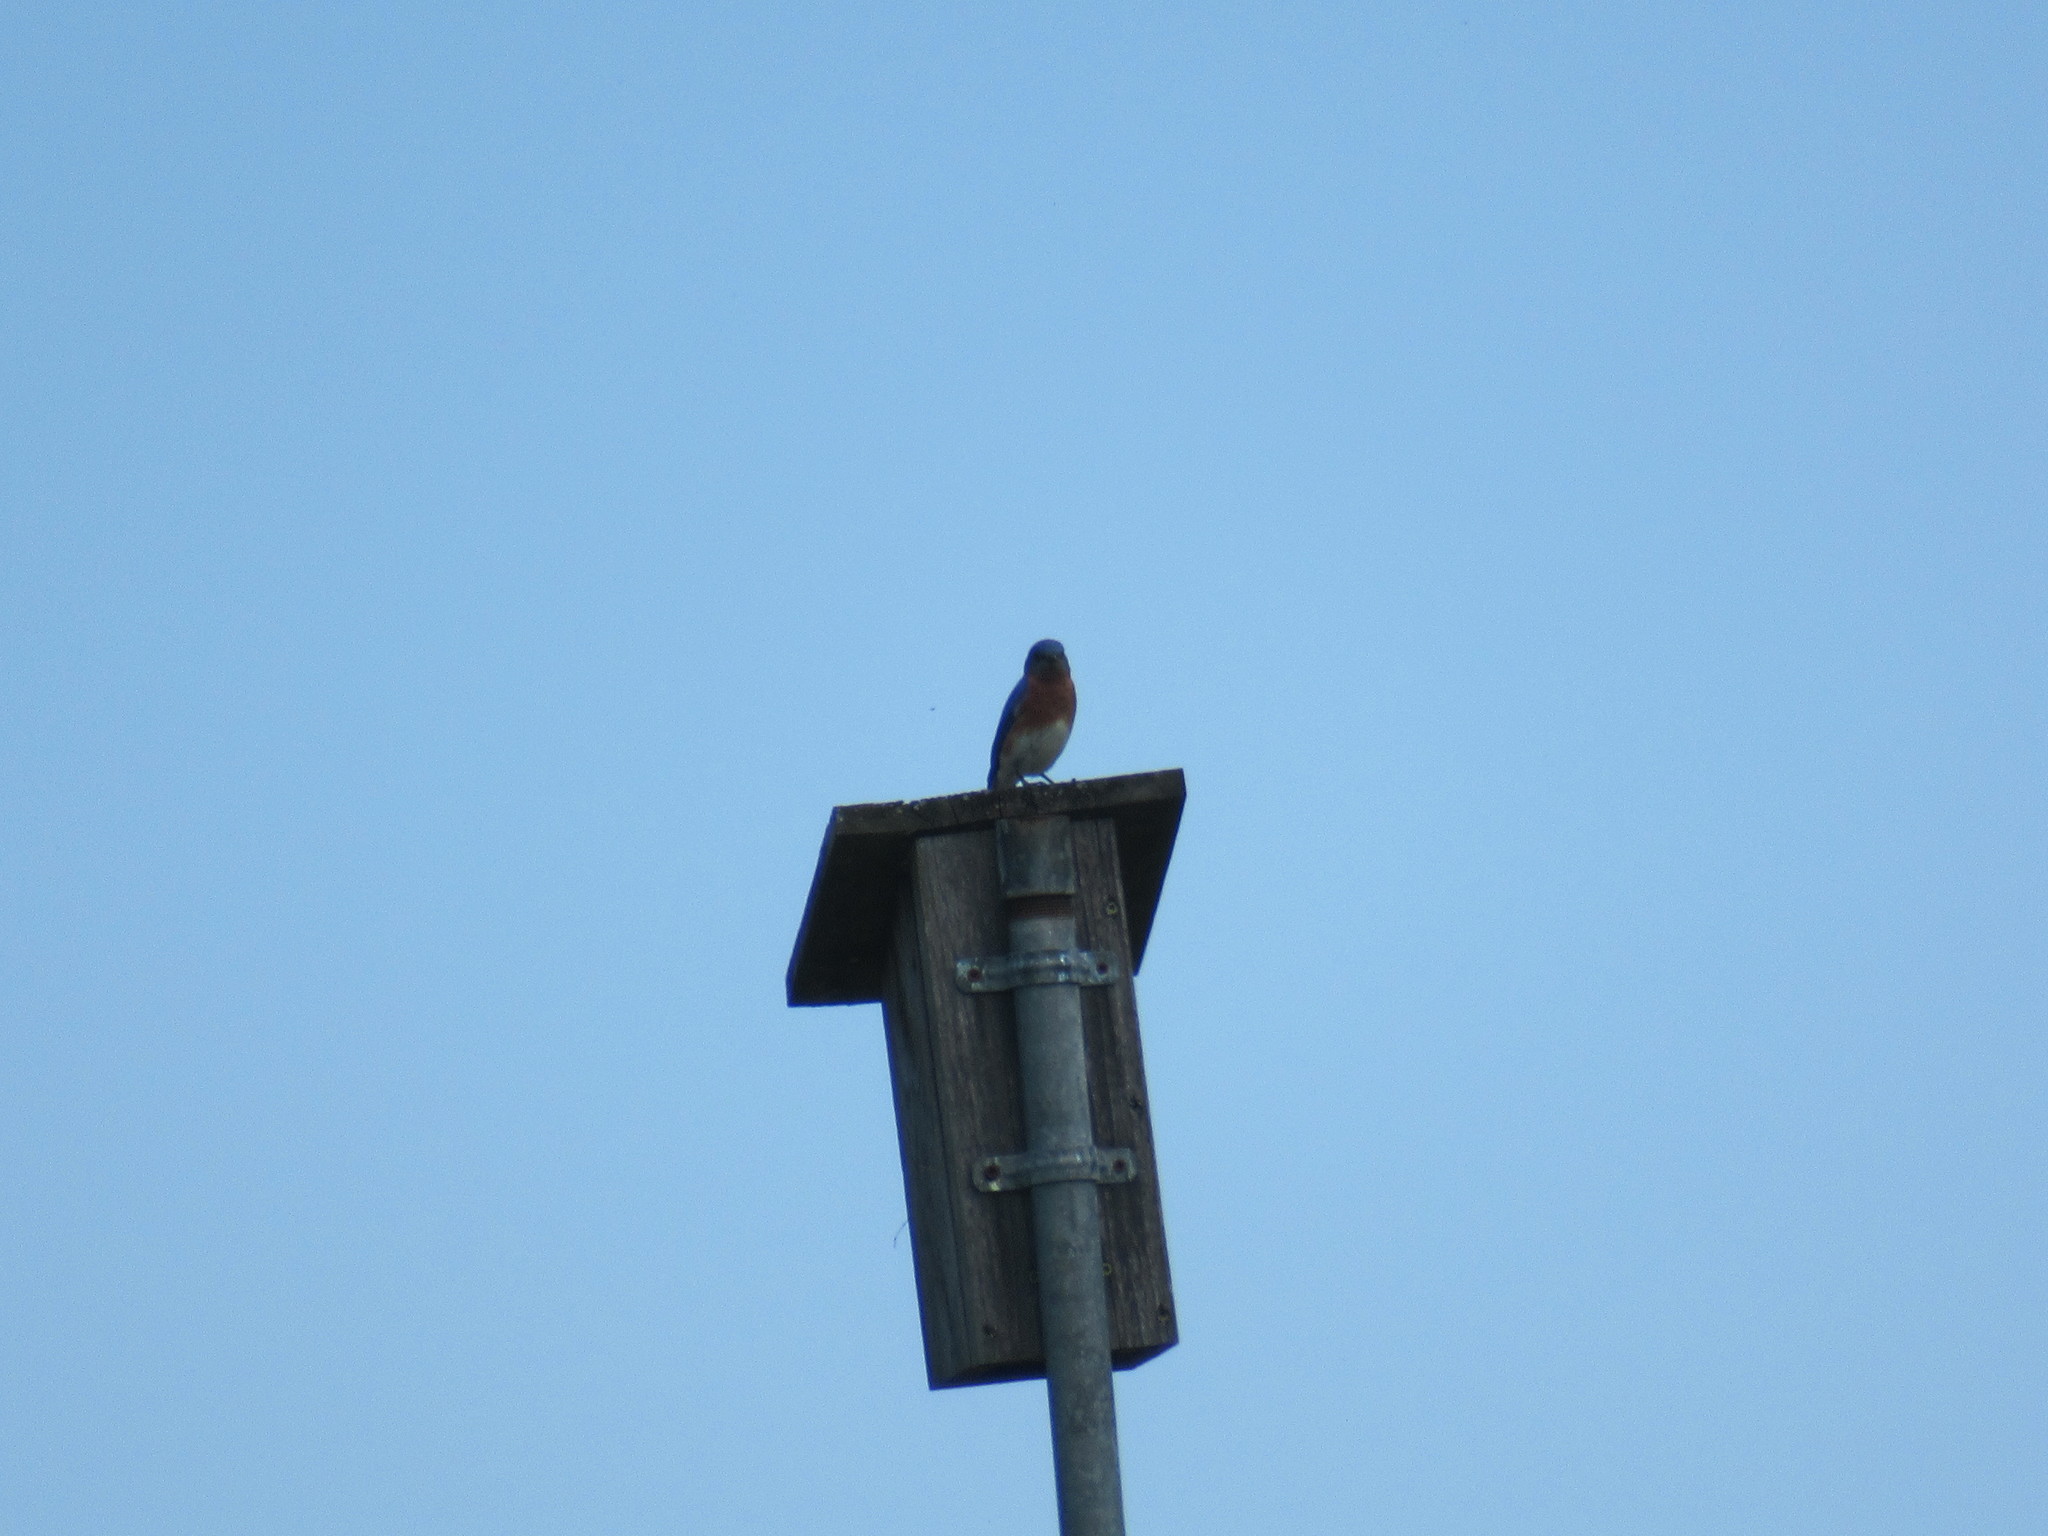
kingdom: Animalia
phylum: Chordata
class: Aves
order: Passeriformes
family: Turdidae
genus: Sialia
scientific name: Sialia sialis
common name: Eastern bluebird
